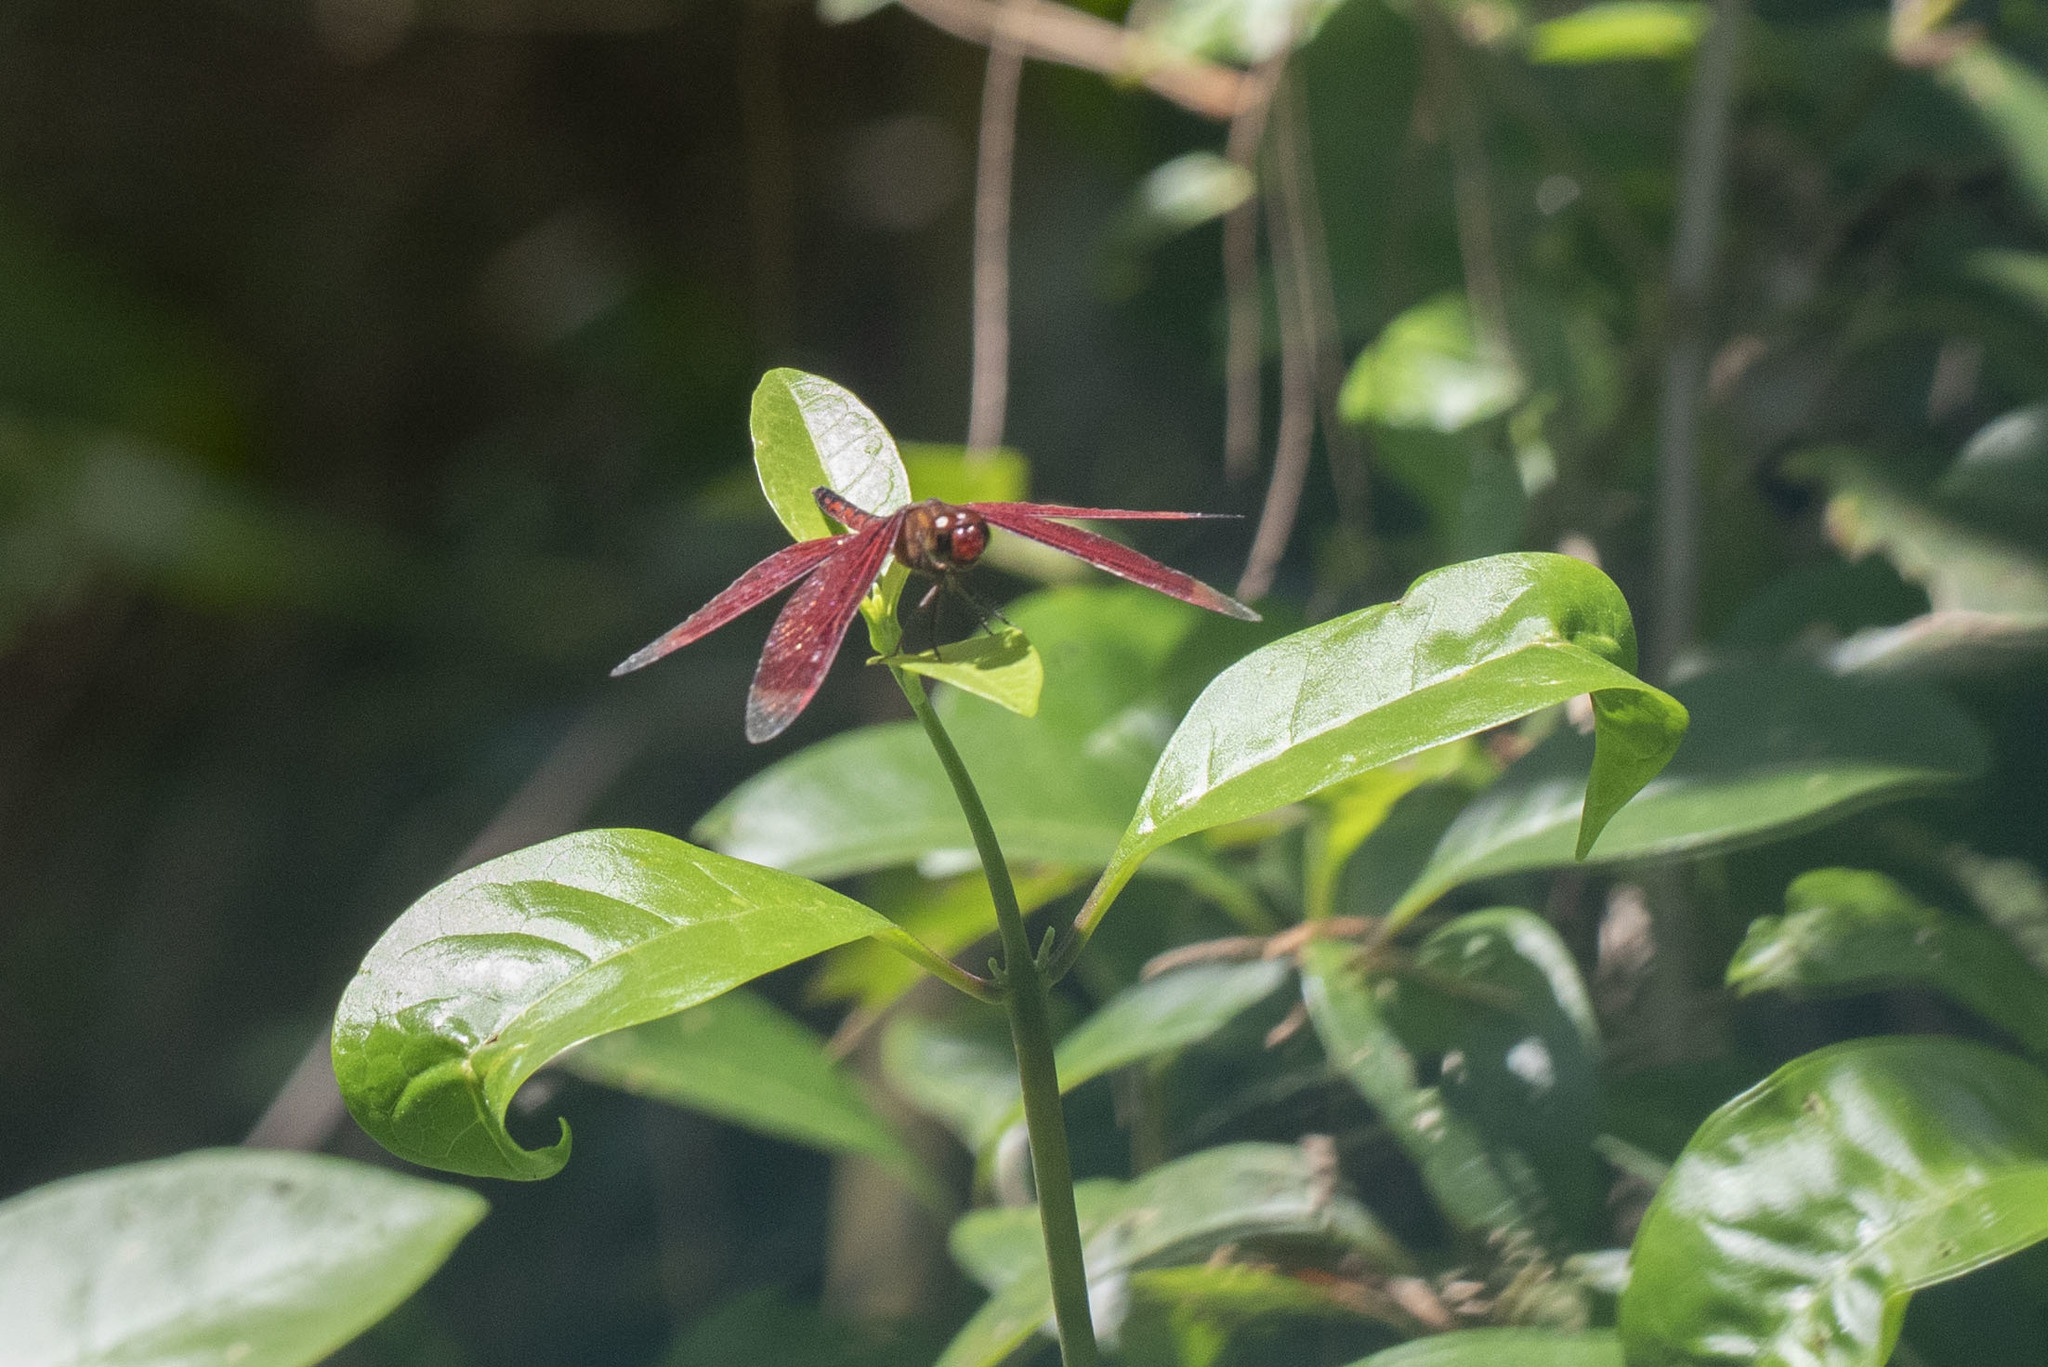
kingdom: Animalia
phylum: Arthropoda
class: Insecta
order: Odonata
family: Libellulidae
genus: Neurothemis
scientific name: Neurothemis ramburii
